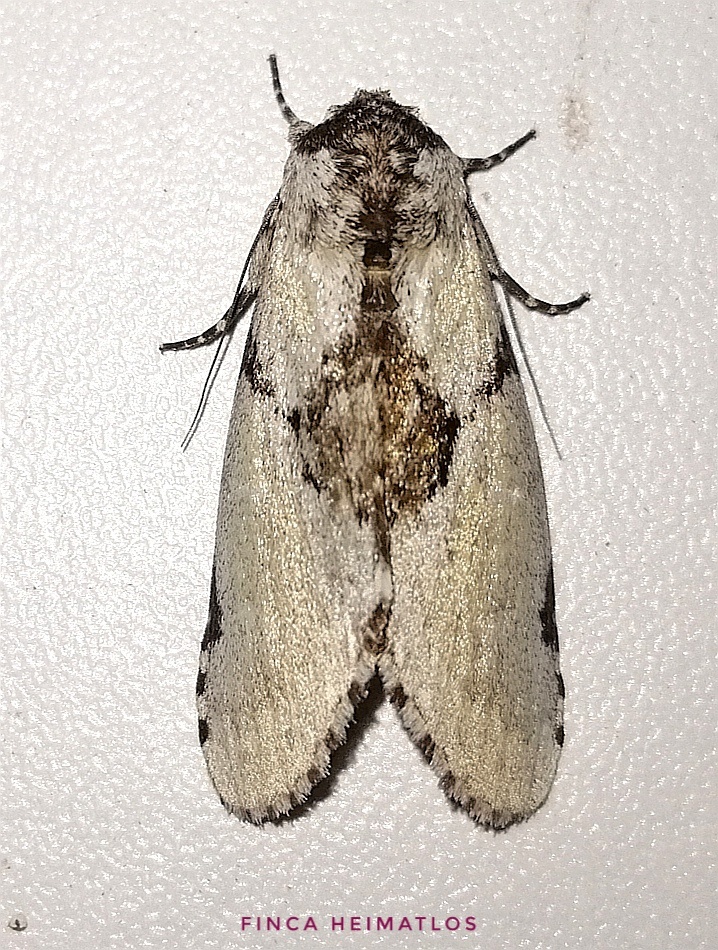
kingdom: Animalia
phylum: Arthropoda
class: Insecta
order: Lepidoptera
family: Notodontidae
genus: Malocampa
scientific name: Malocampa piratica
